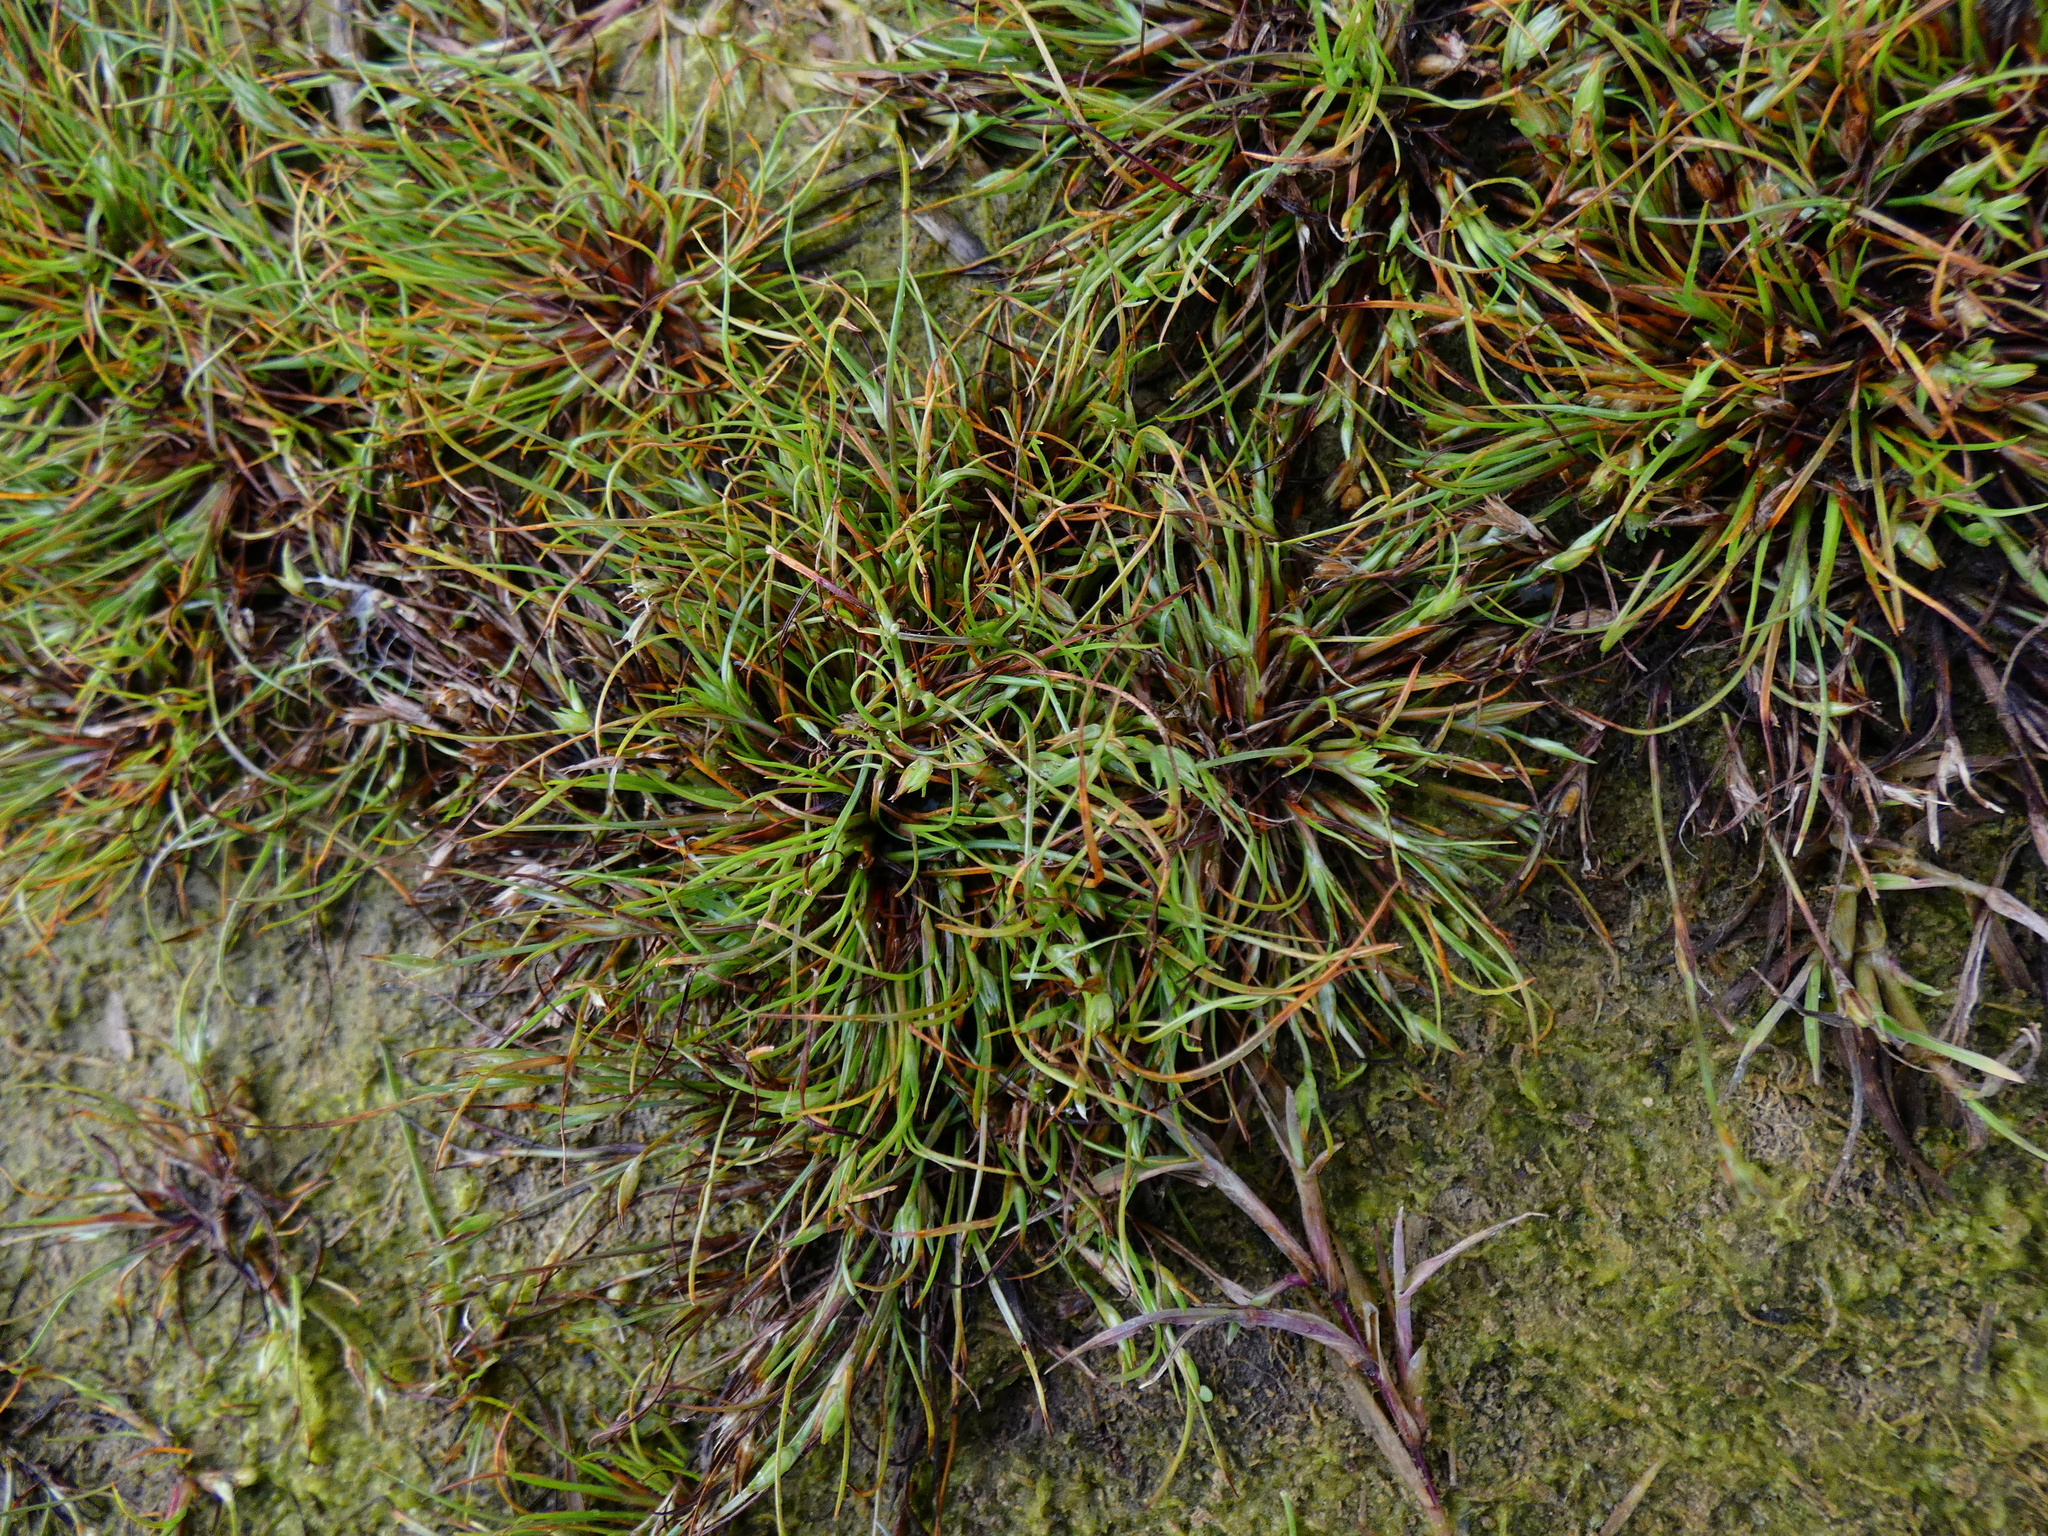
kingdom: Plantae
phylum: Tracheophyta
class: Liliopsida
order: Poales
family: Juncaceae
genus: Juncus
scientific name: Juncus ranarius
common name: Frog rush
